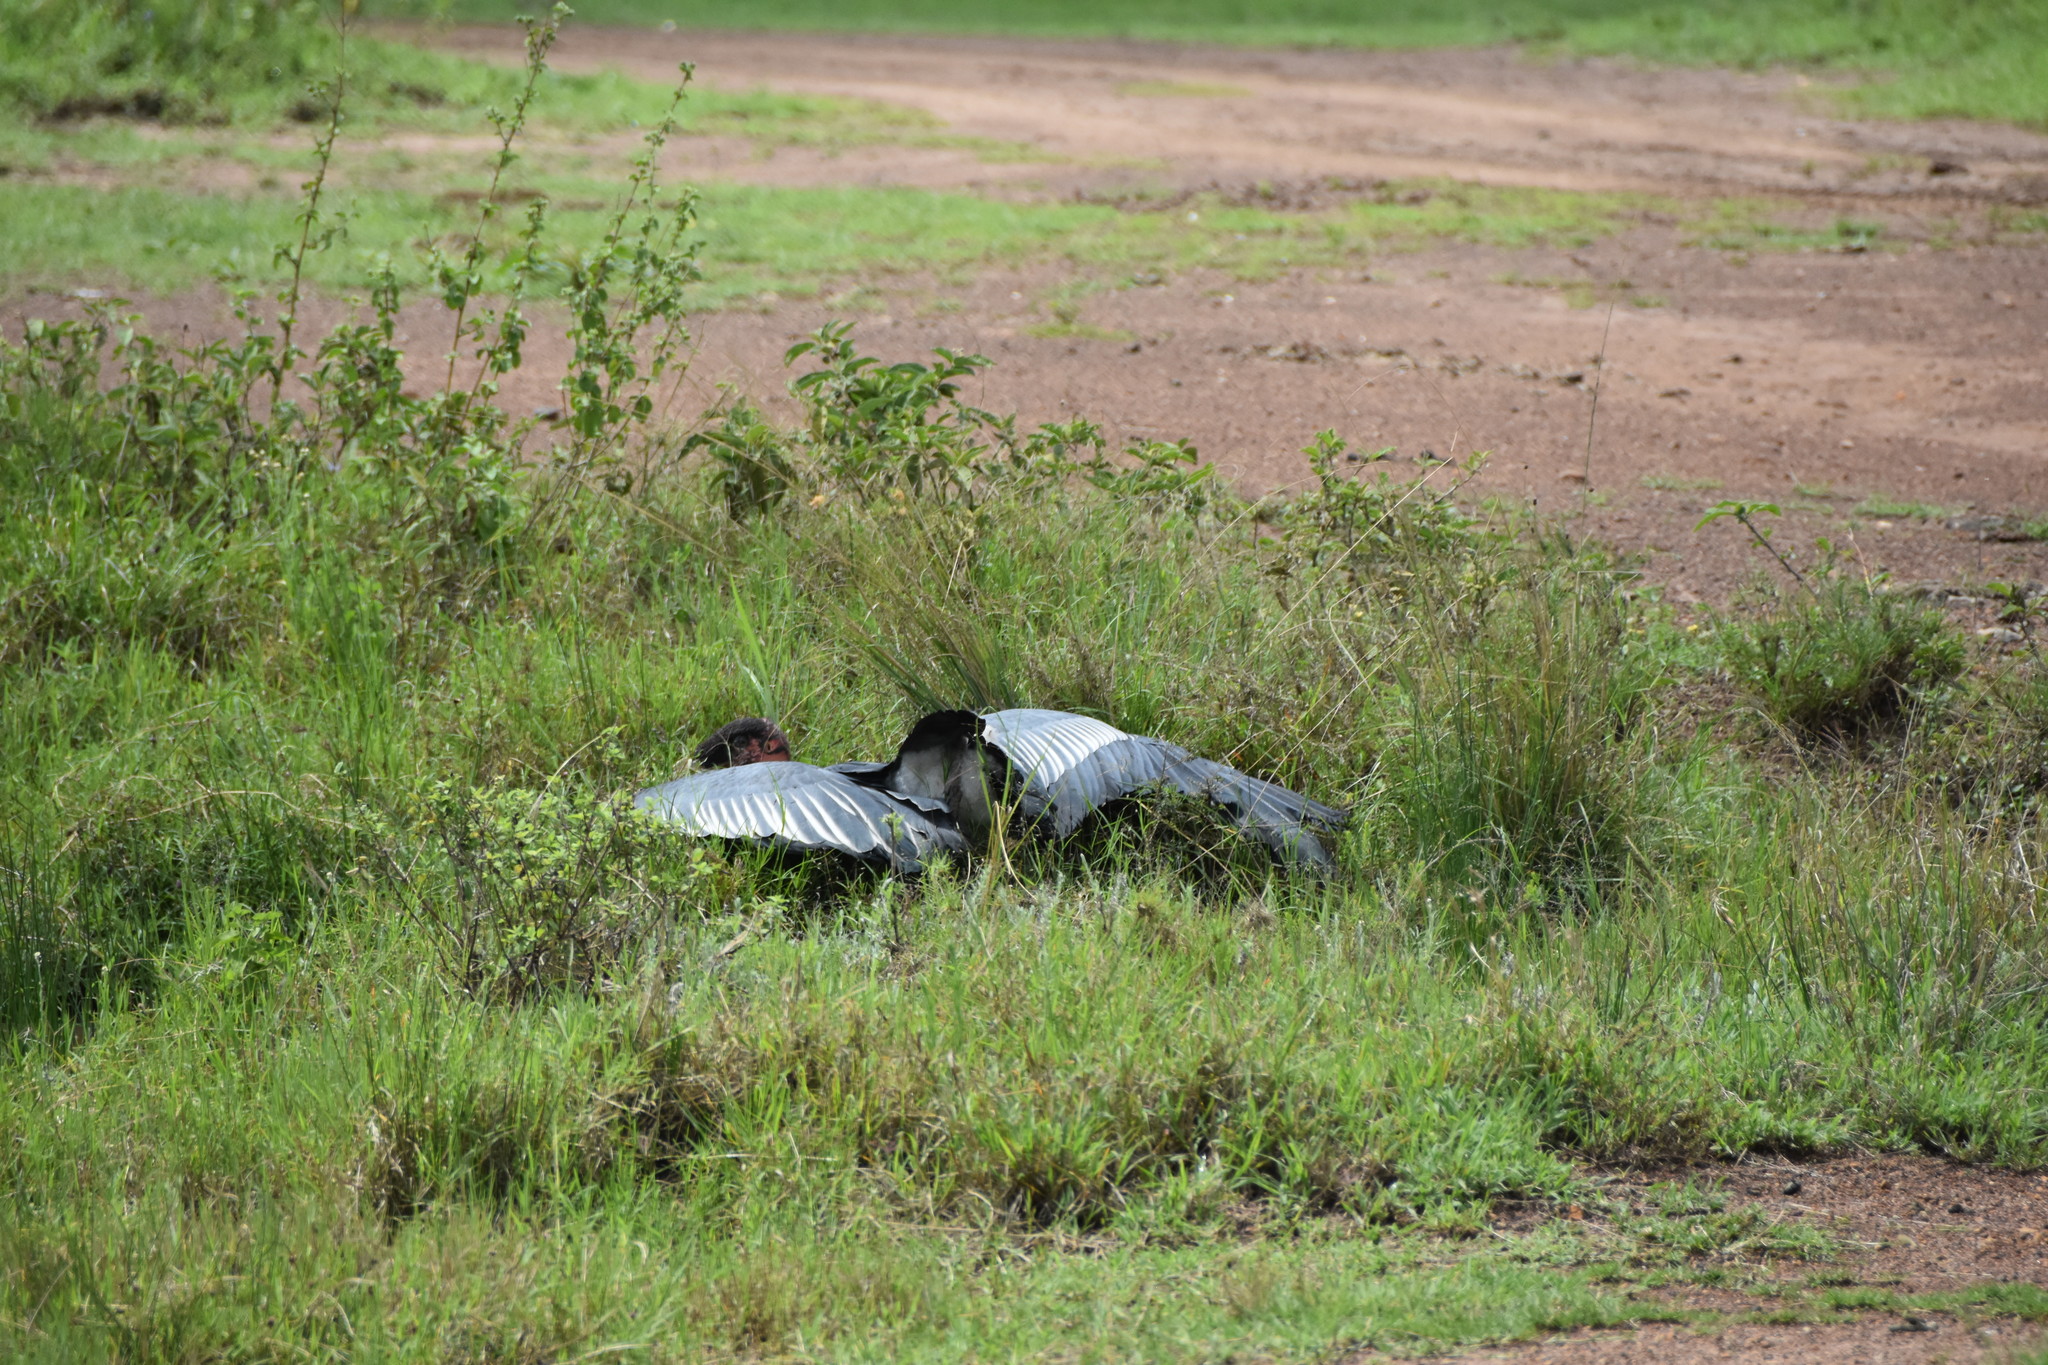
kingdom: Animalia
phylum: Chordata
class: Aves
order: Ciconiiformes
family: Ciconiidae
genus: Leptoptilos
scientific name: Leptoptilos crumenifer
